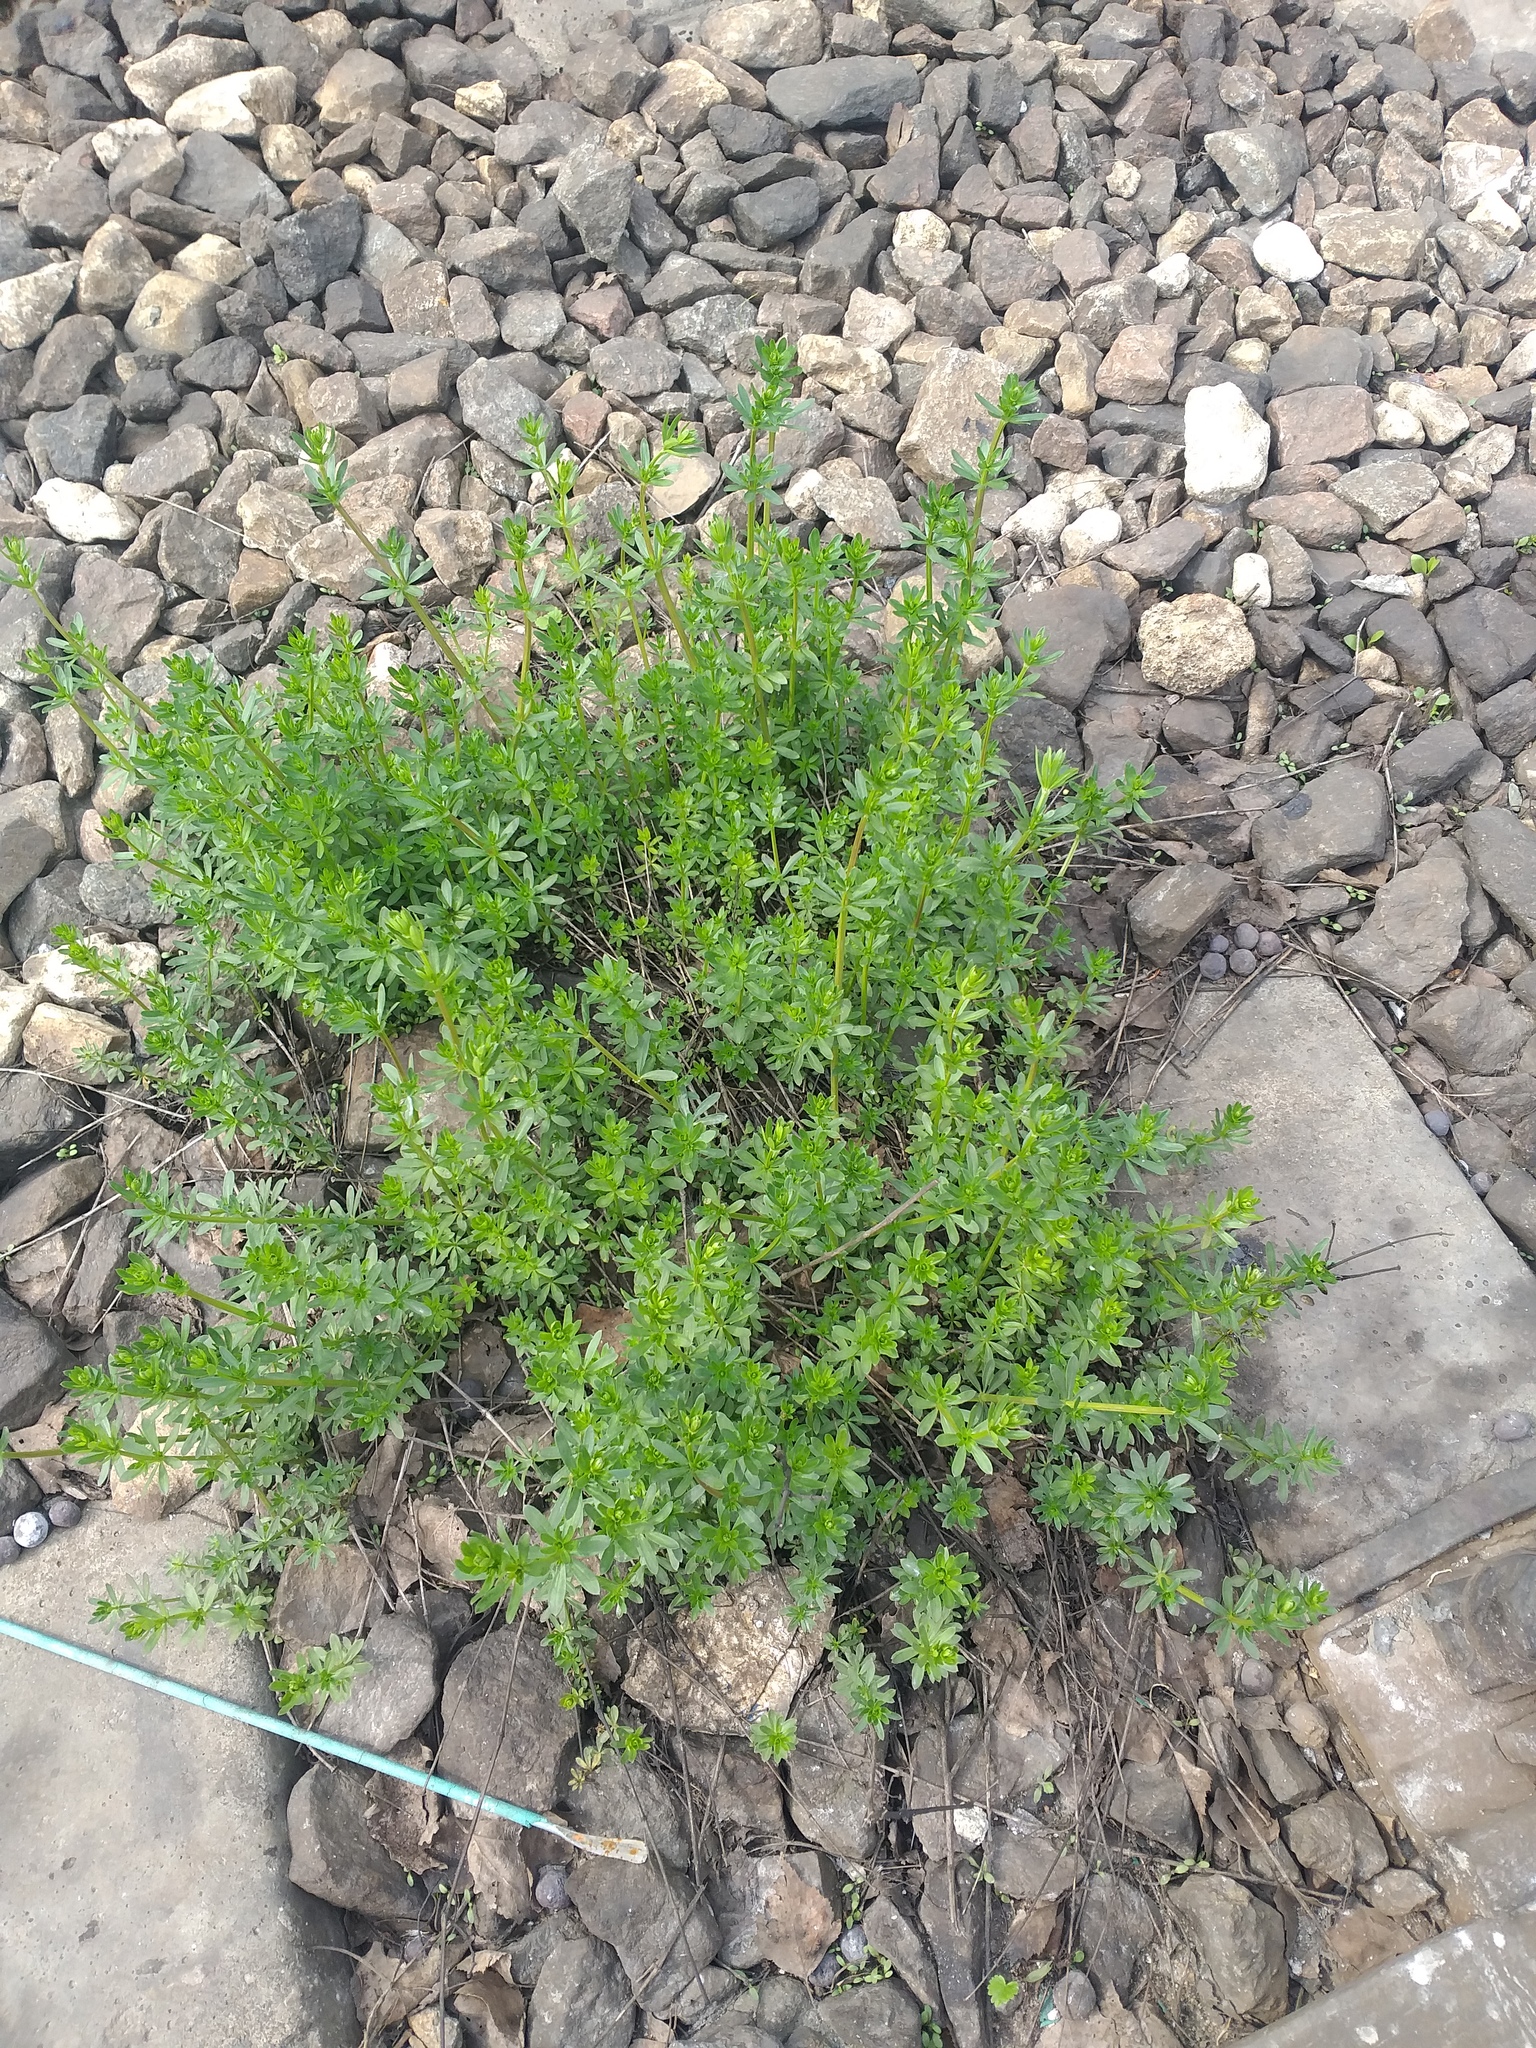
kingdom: Plantae
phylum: Tracheophyta
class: Magnoliopsida
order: Gentianales
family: Rubiaceae
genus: Galium
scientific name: Galium mollugo
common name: Hedge bedstraw
